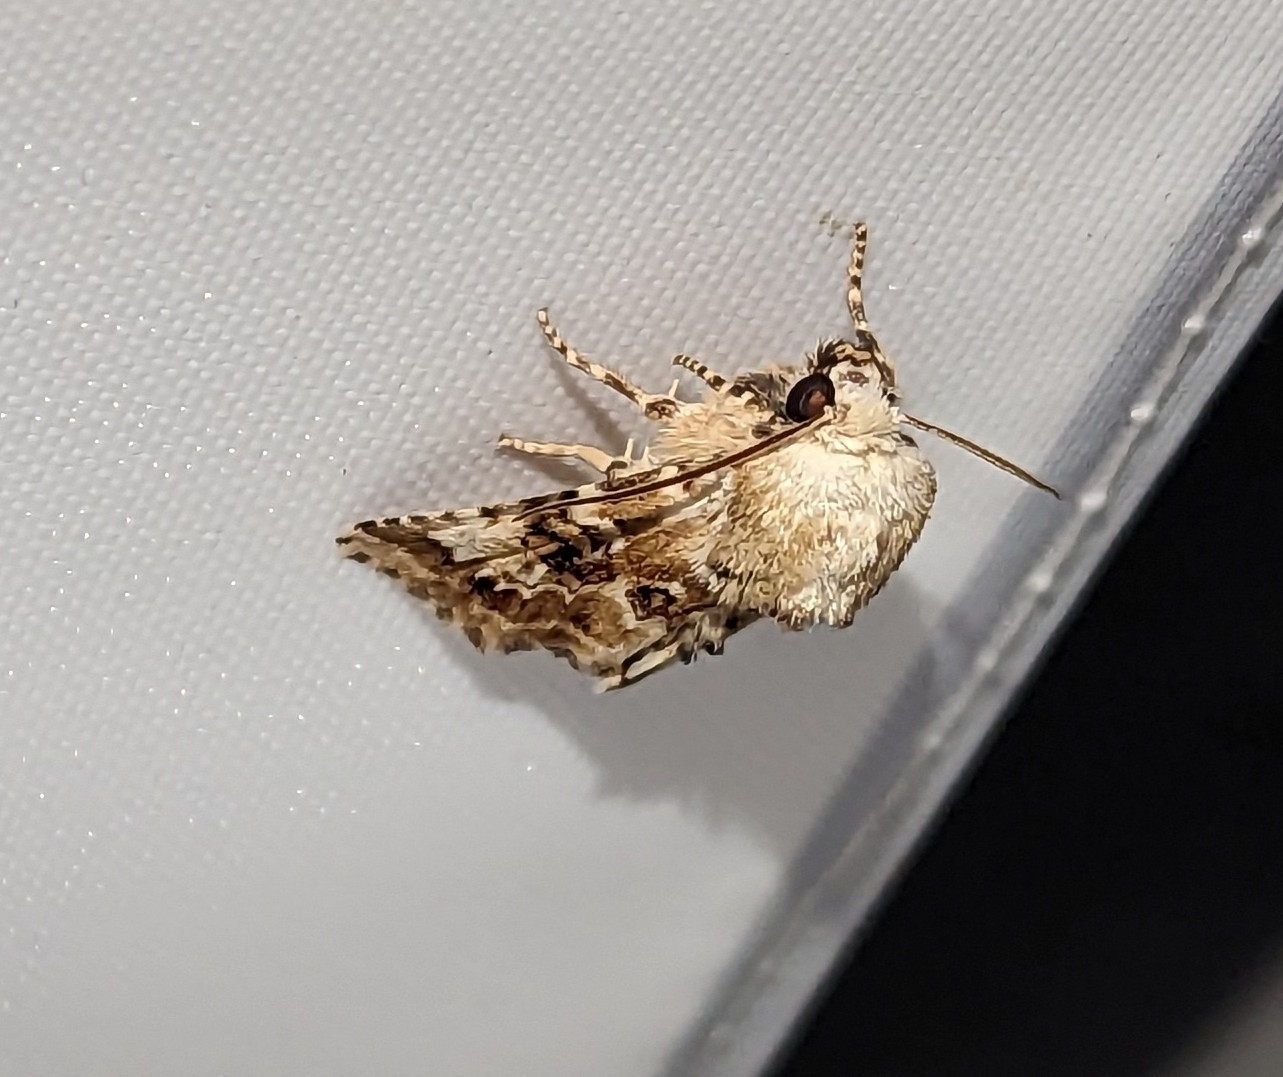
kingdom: Animalia
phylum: Arthropoda
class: Insecta
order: Lepidoptera
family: Noctuidae
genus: Eremobia
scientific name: Eremobia ochroleuca
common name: Dusky sallow
